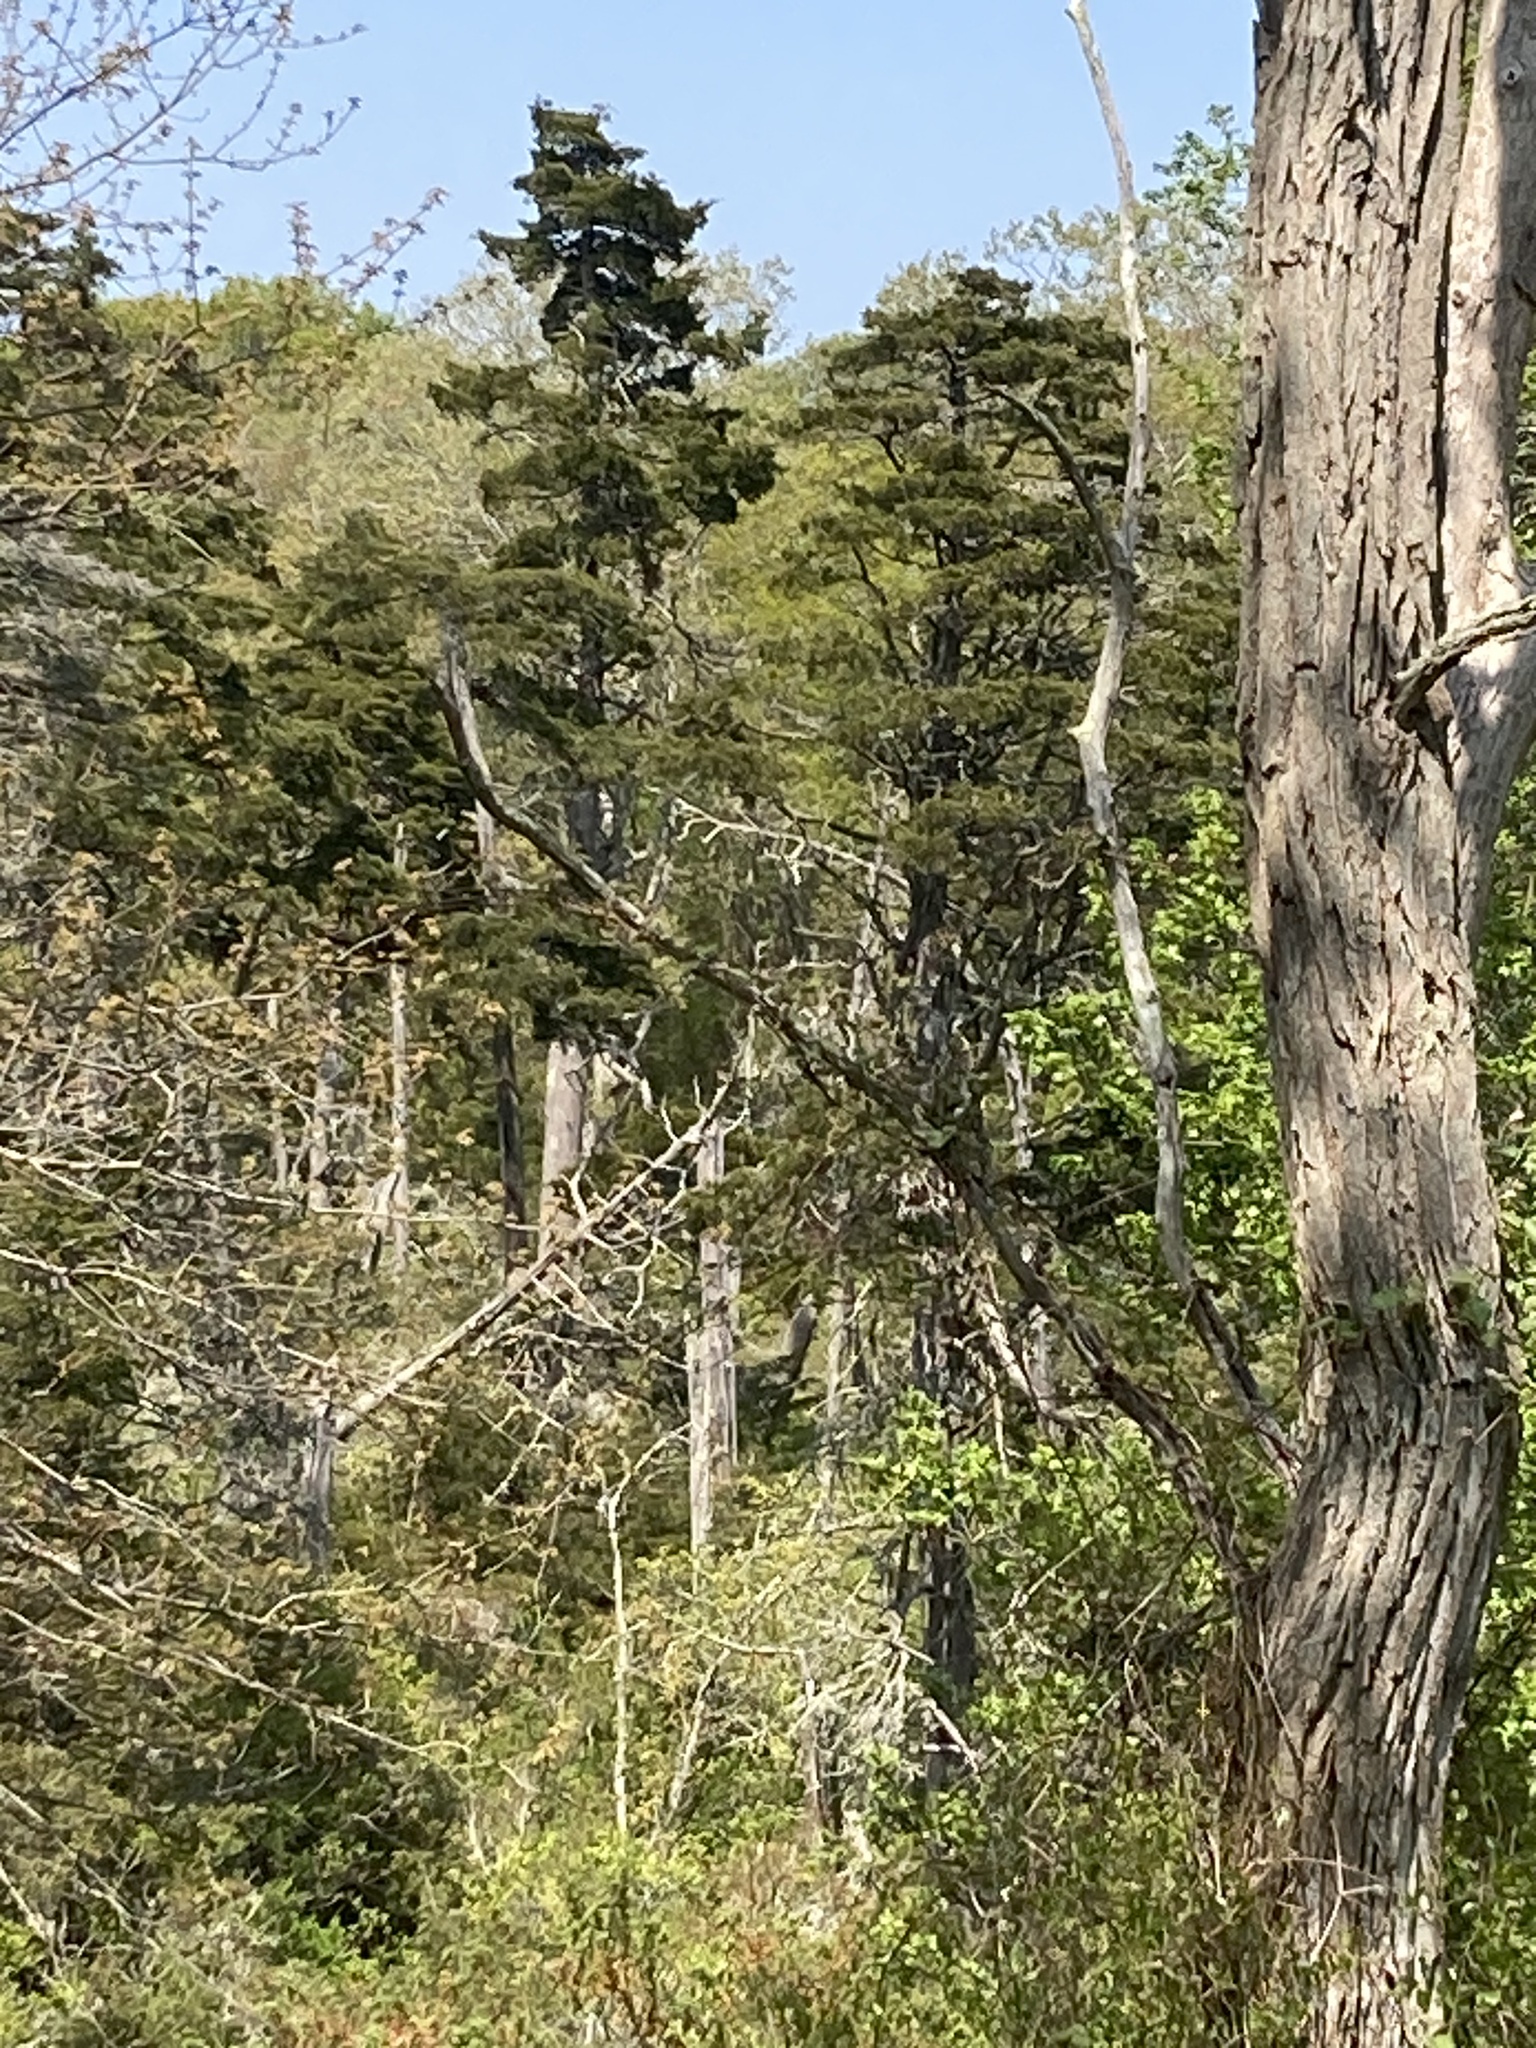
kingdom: Plantae
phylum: Tracheophyta
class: Pinopsida
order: Pinales
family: Cupressaceae
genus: Chamaecyparis
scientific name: Chamaecyparis thyoides
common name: Atlantic white cedar
